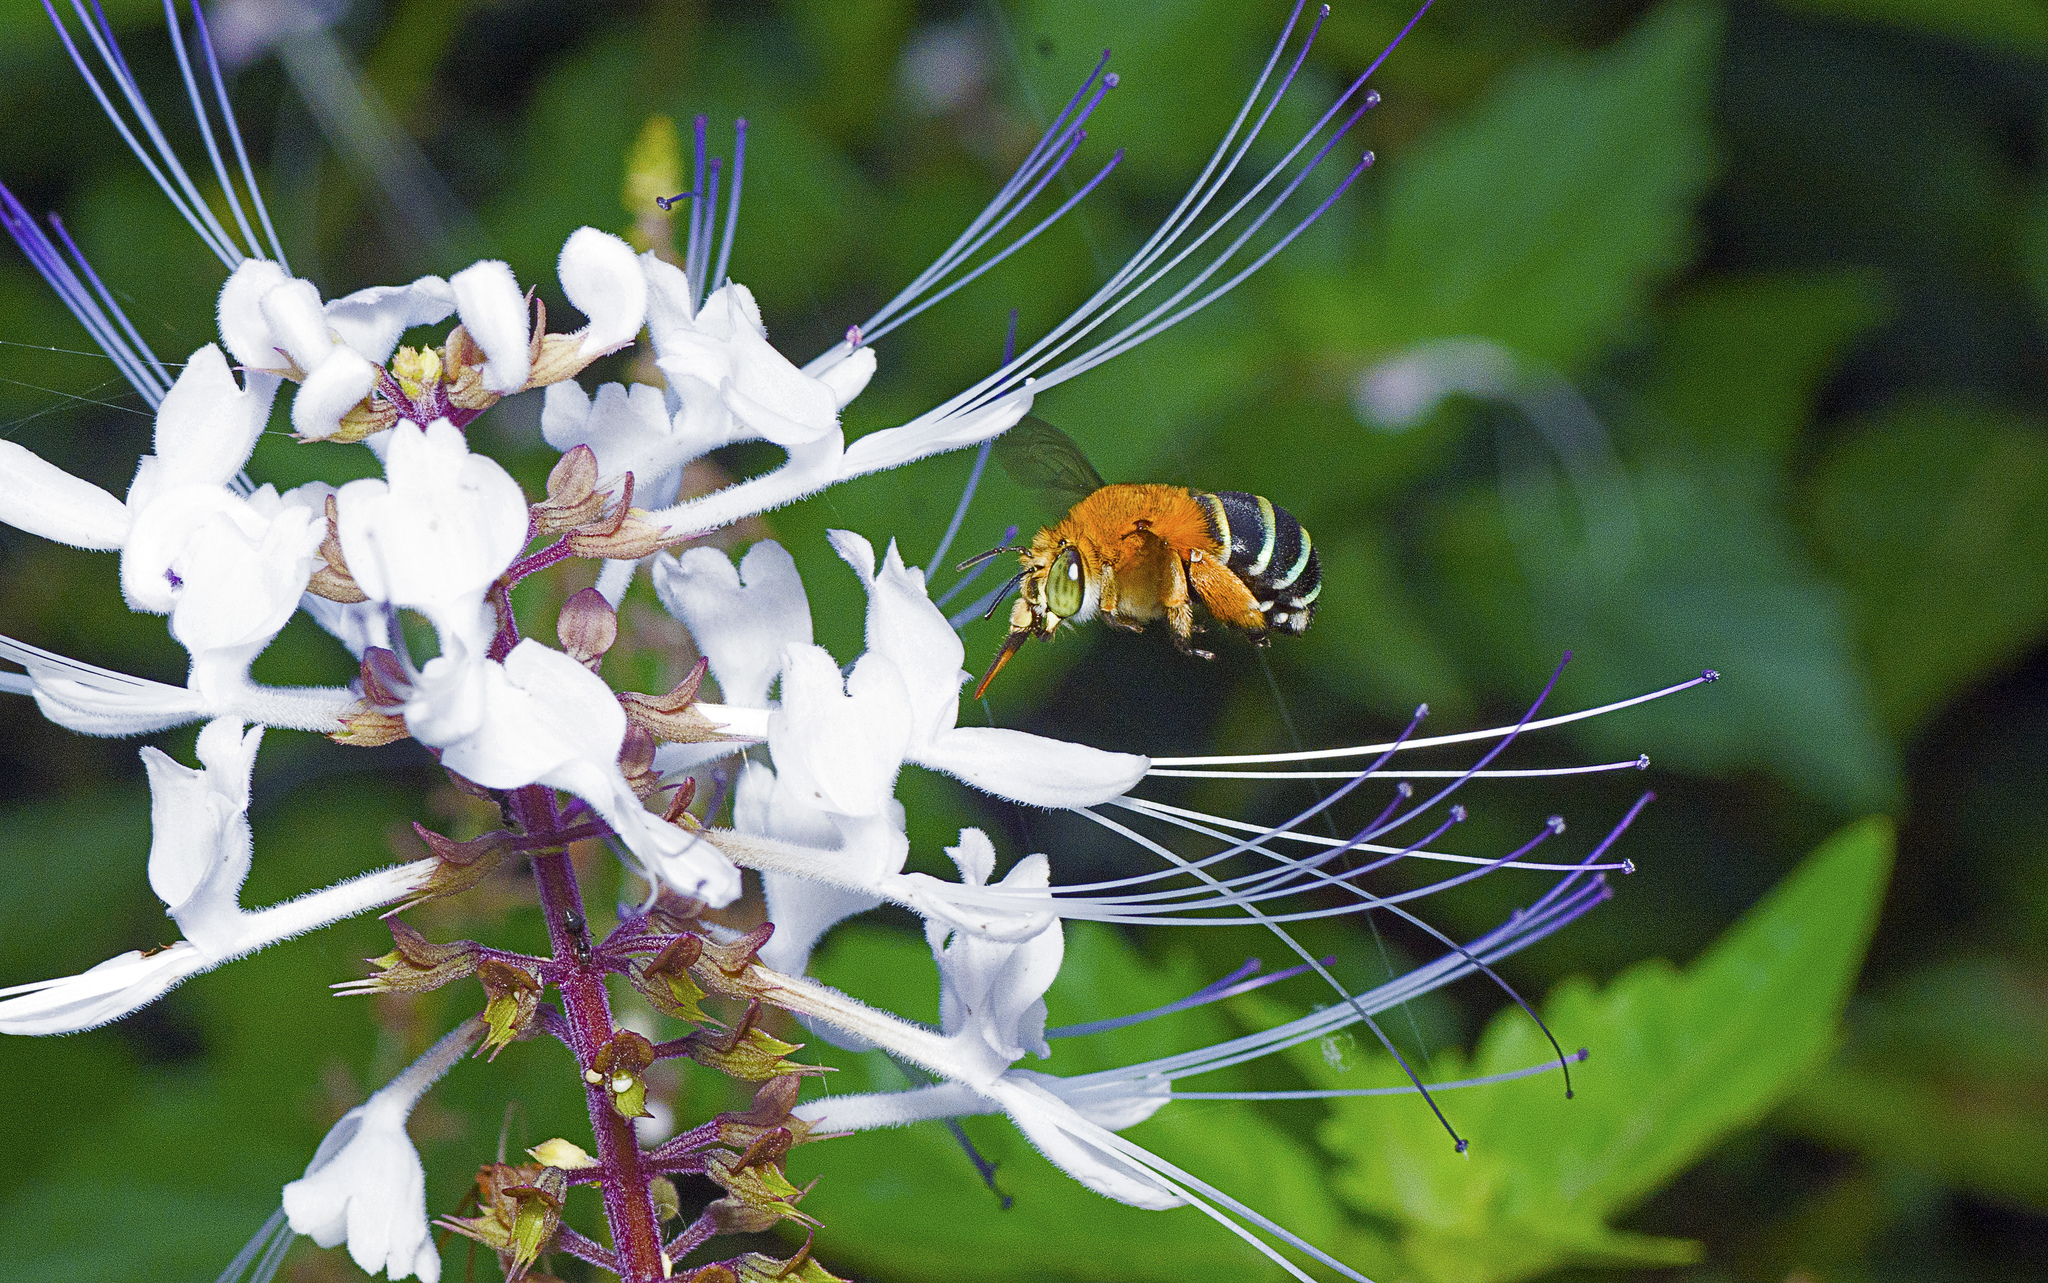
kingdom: Animalia
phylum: Arthropoda
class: Insecta
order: Hymenoptera
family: Apidae
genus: Amegilla
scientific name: Amegilla cingulata
